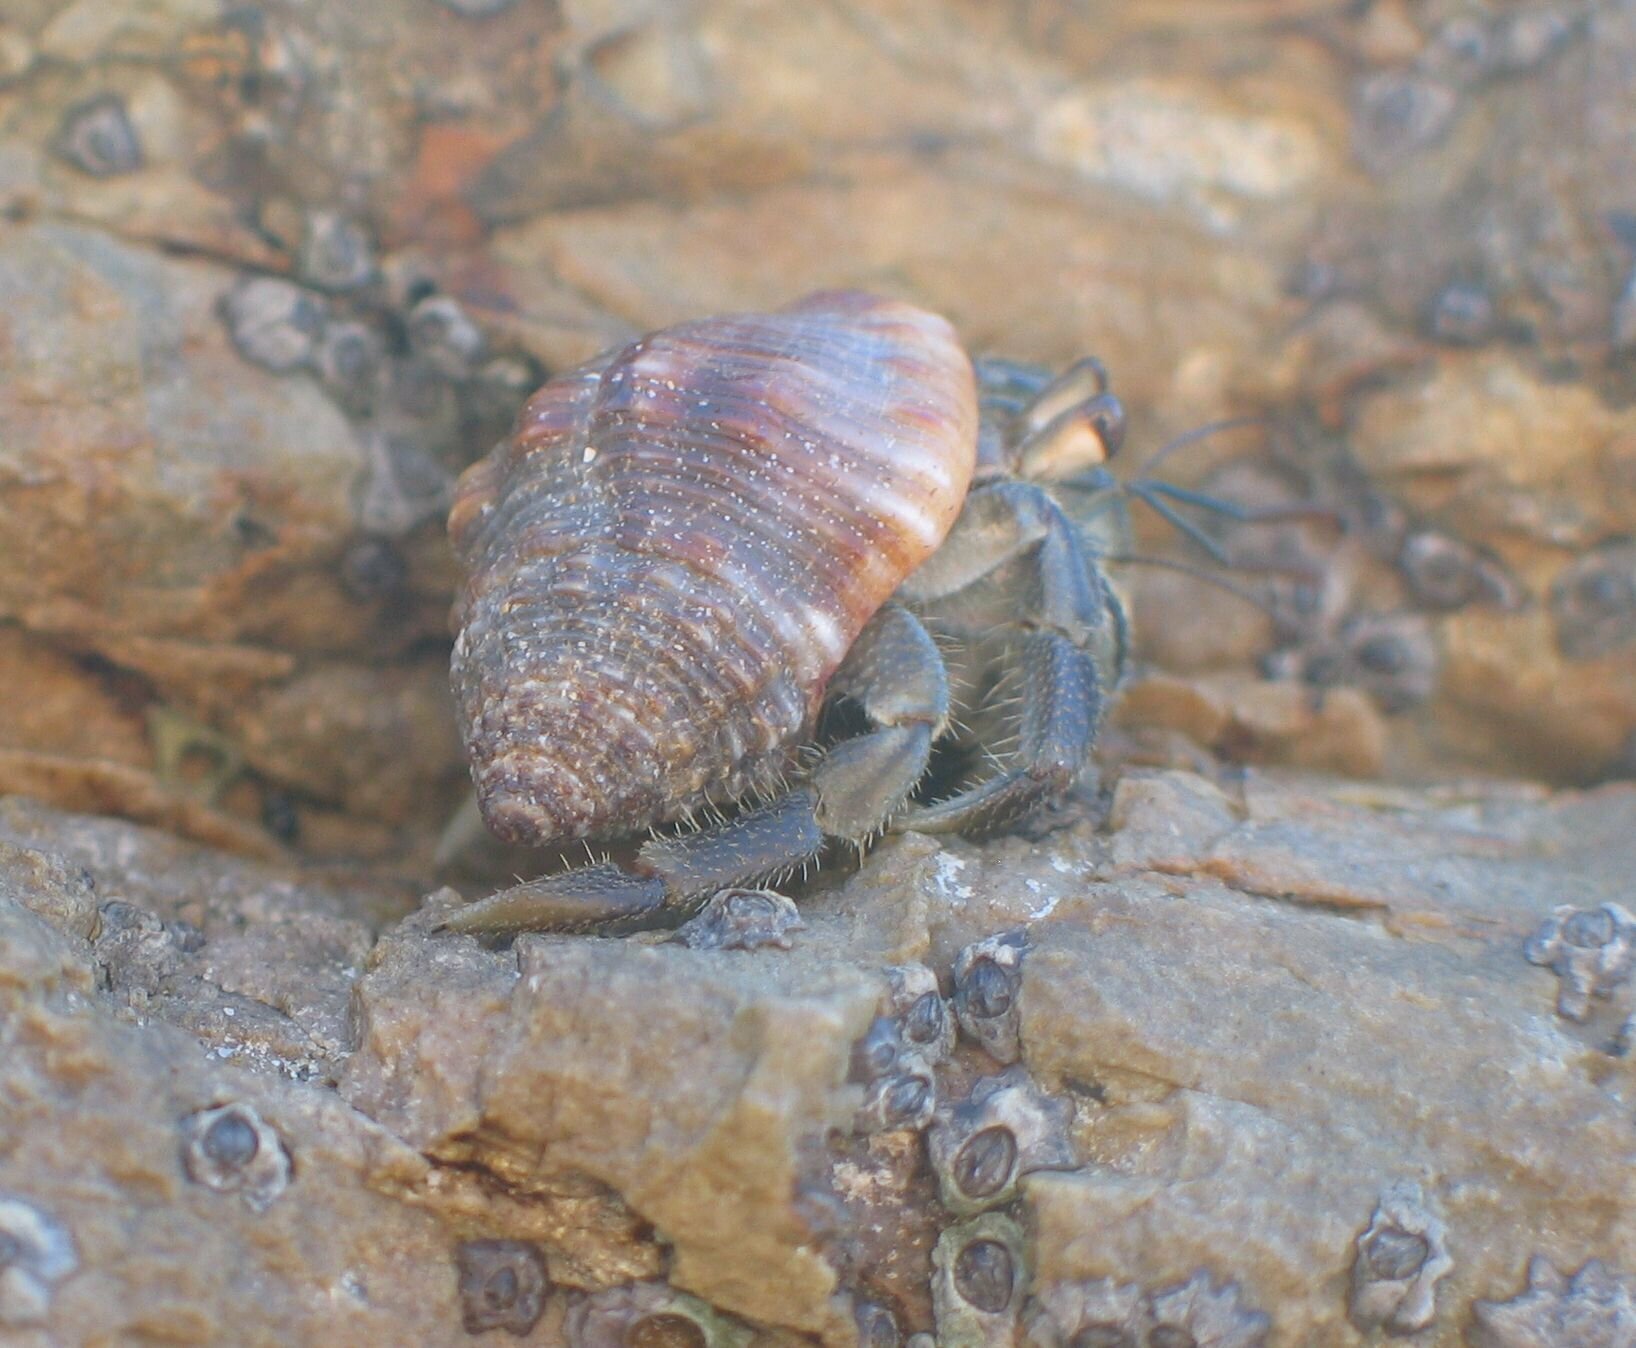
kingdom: Animalia
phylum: Arthropoda
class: Malacostraca
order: Decapoda
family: Coenobitidae
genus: Coenobita
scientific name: Coenobita compressus
